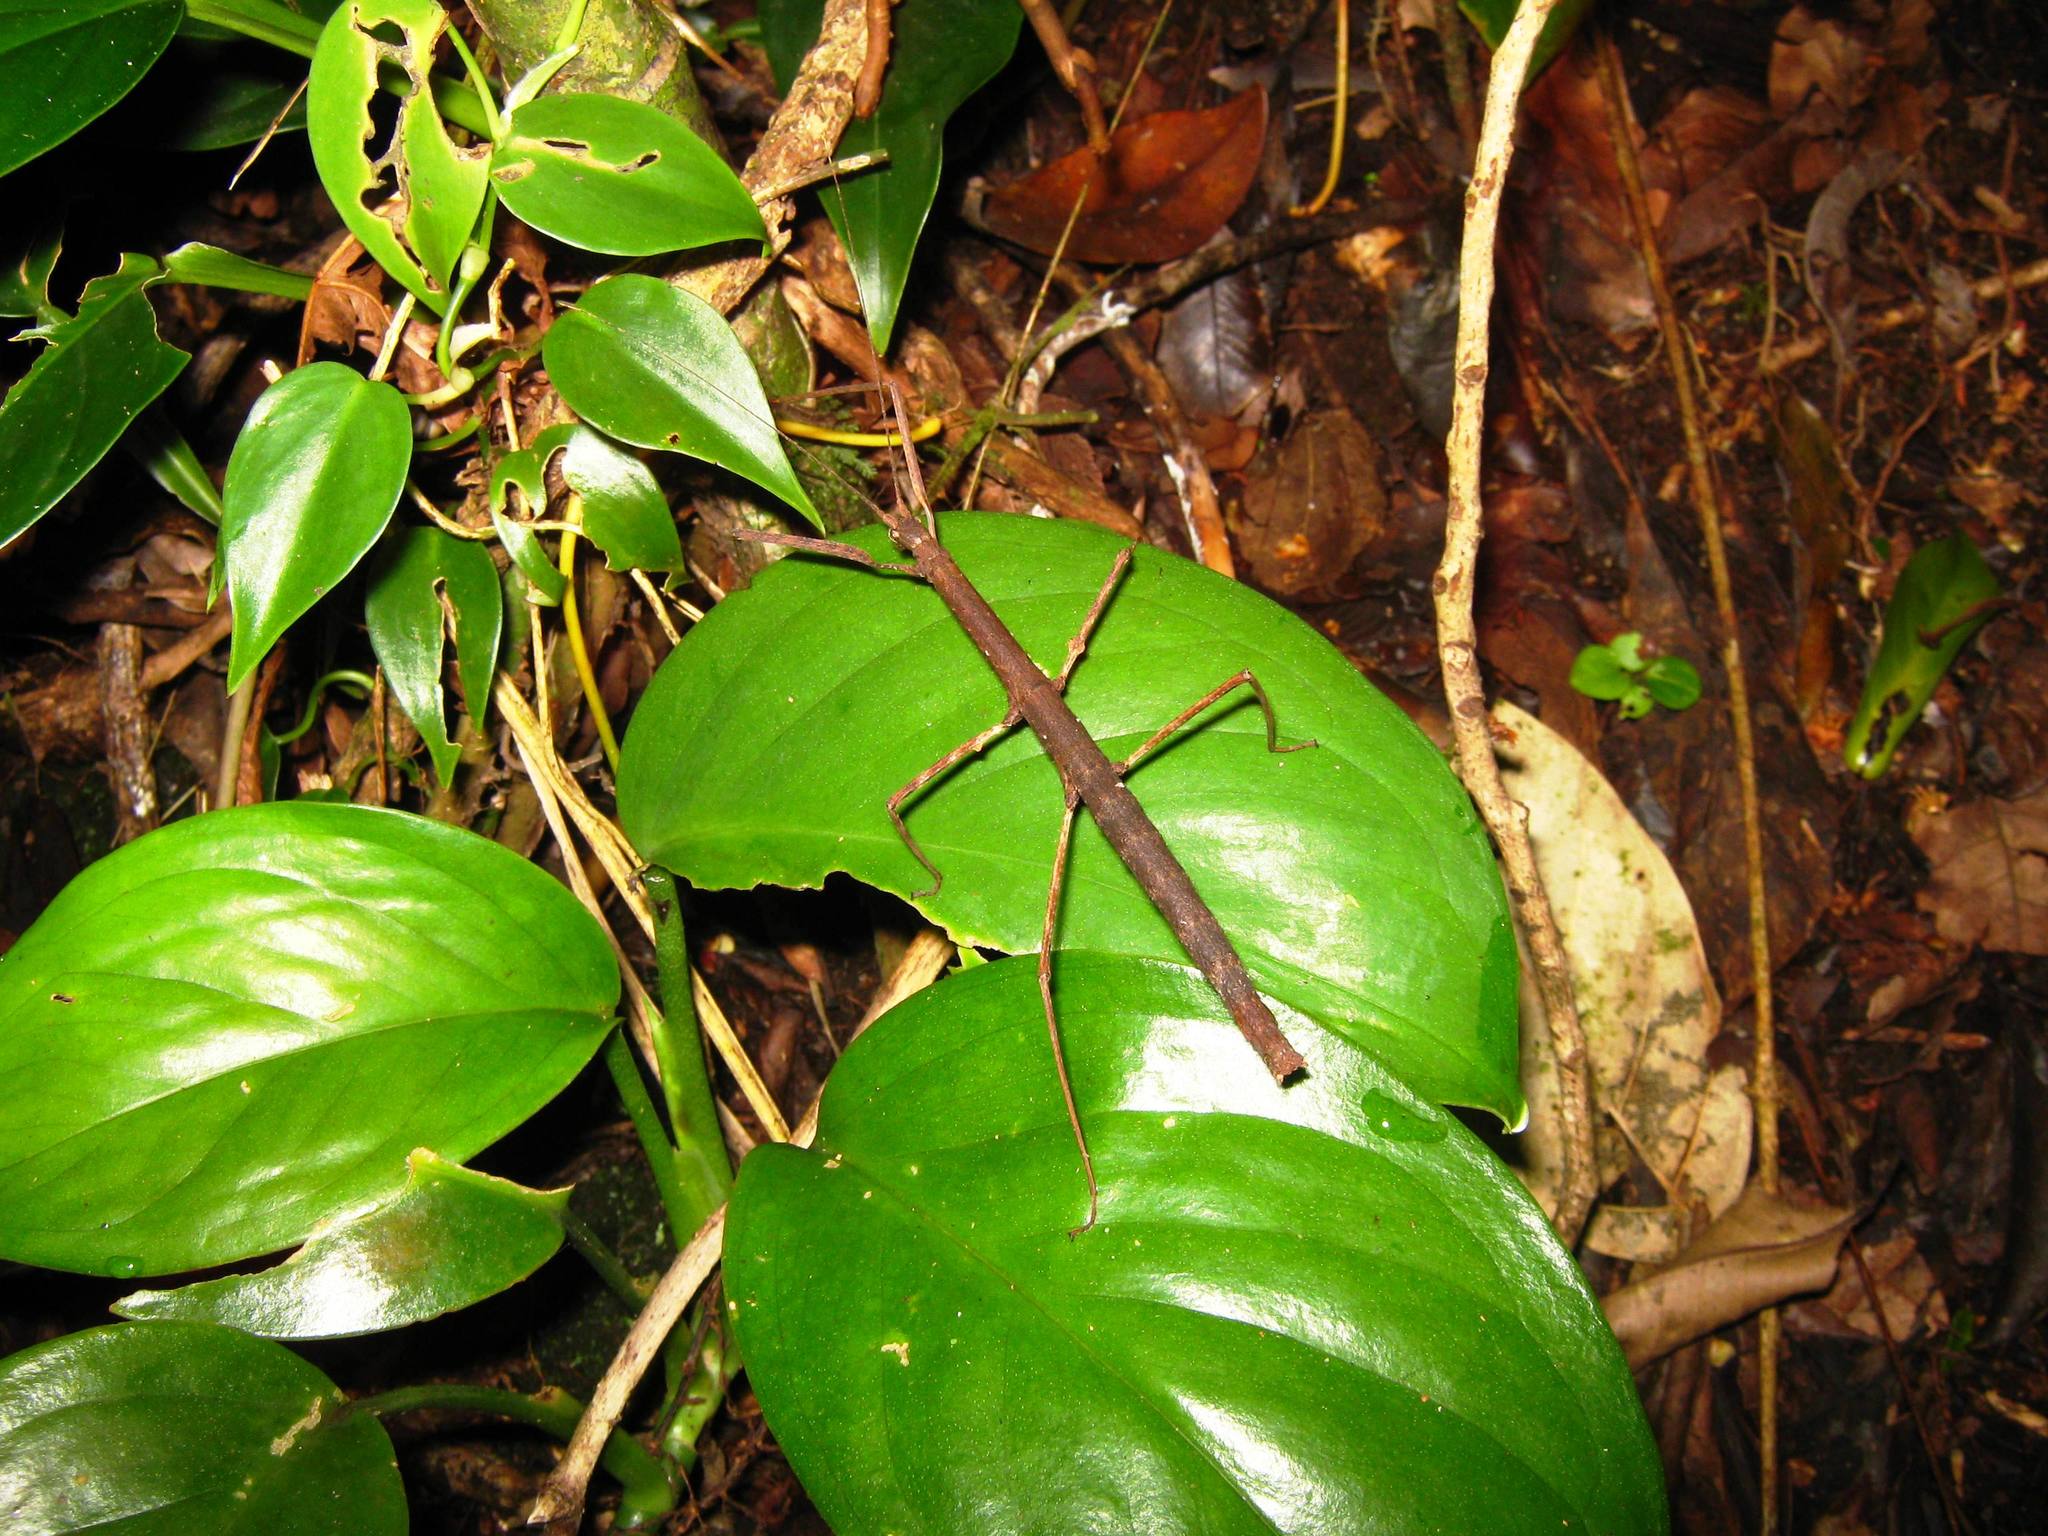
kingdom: Animalia
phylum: Arthropoda
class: Insecta
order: Phasmida
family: Diapheromeridae
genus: Pseudosermyle
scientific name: Pseudosermyle phalangiphora
